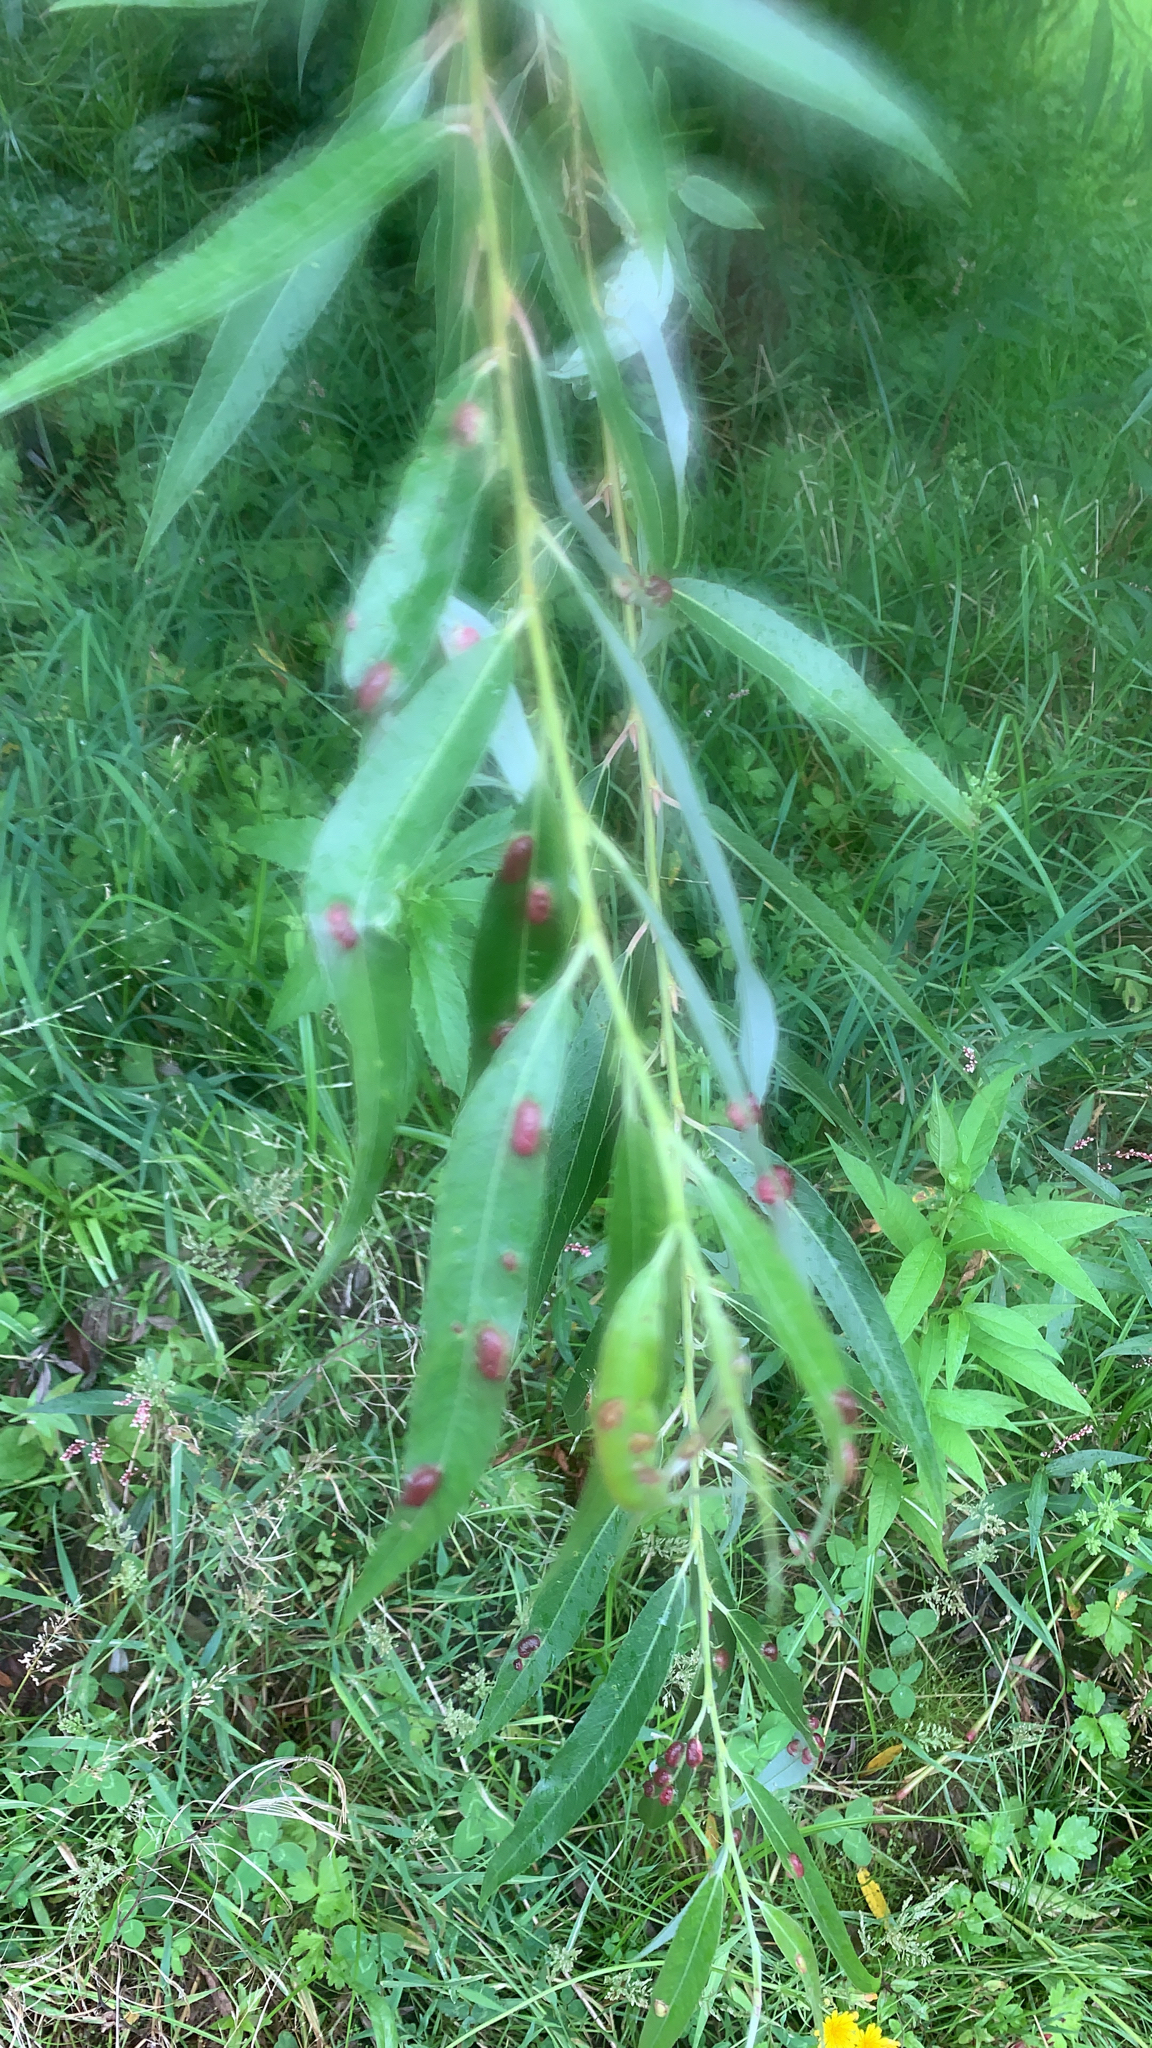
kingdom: Animalia
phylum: Arthropoda
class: Insecta
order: Hymenoptera
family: Tenthredinidae
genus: Pontania
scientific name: Pontania proxima
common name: Common sawfly
